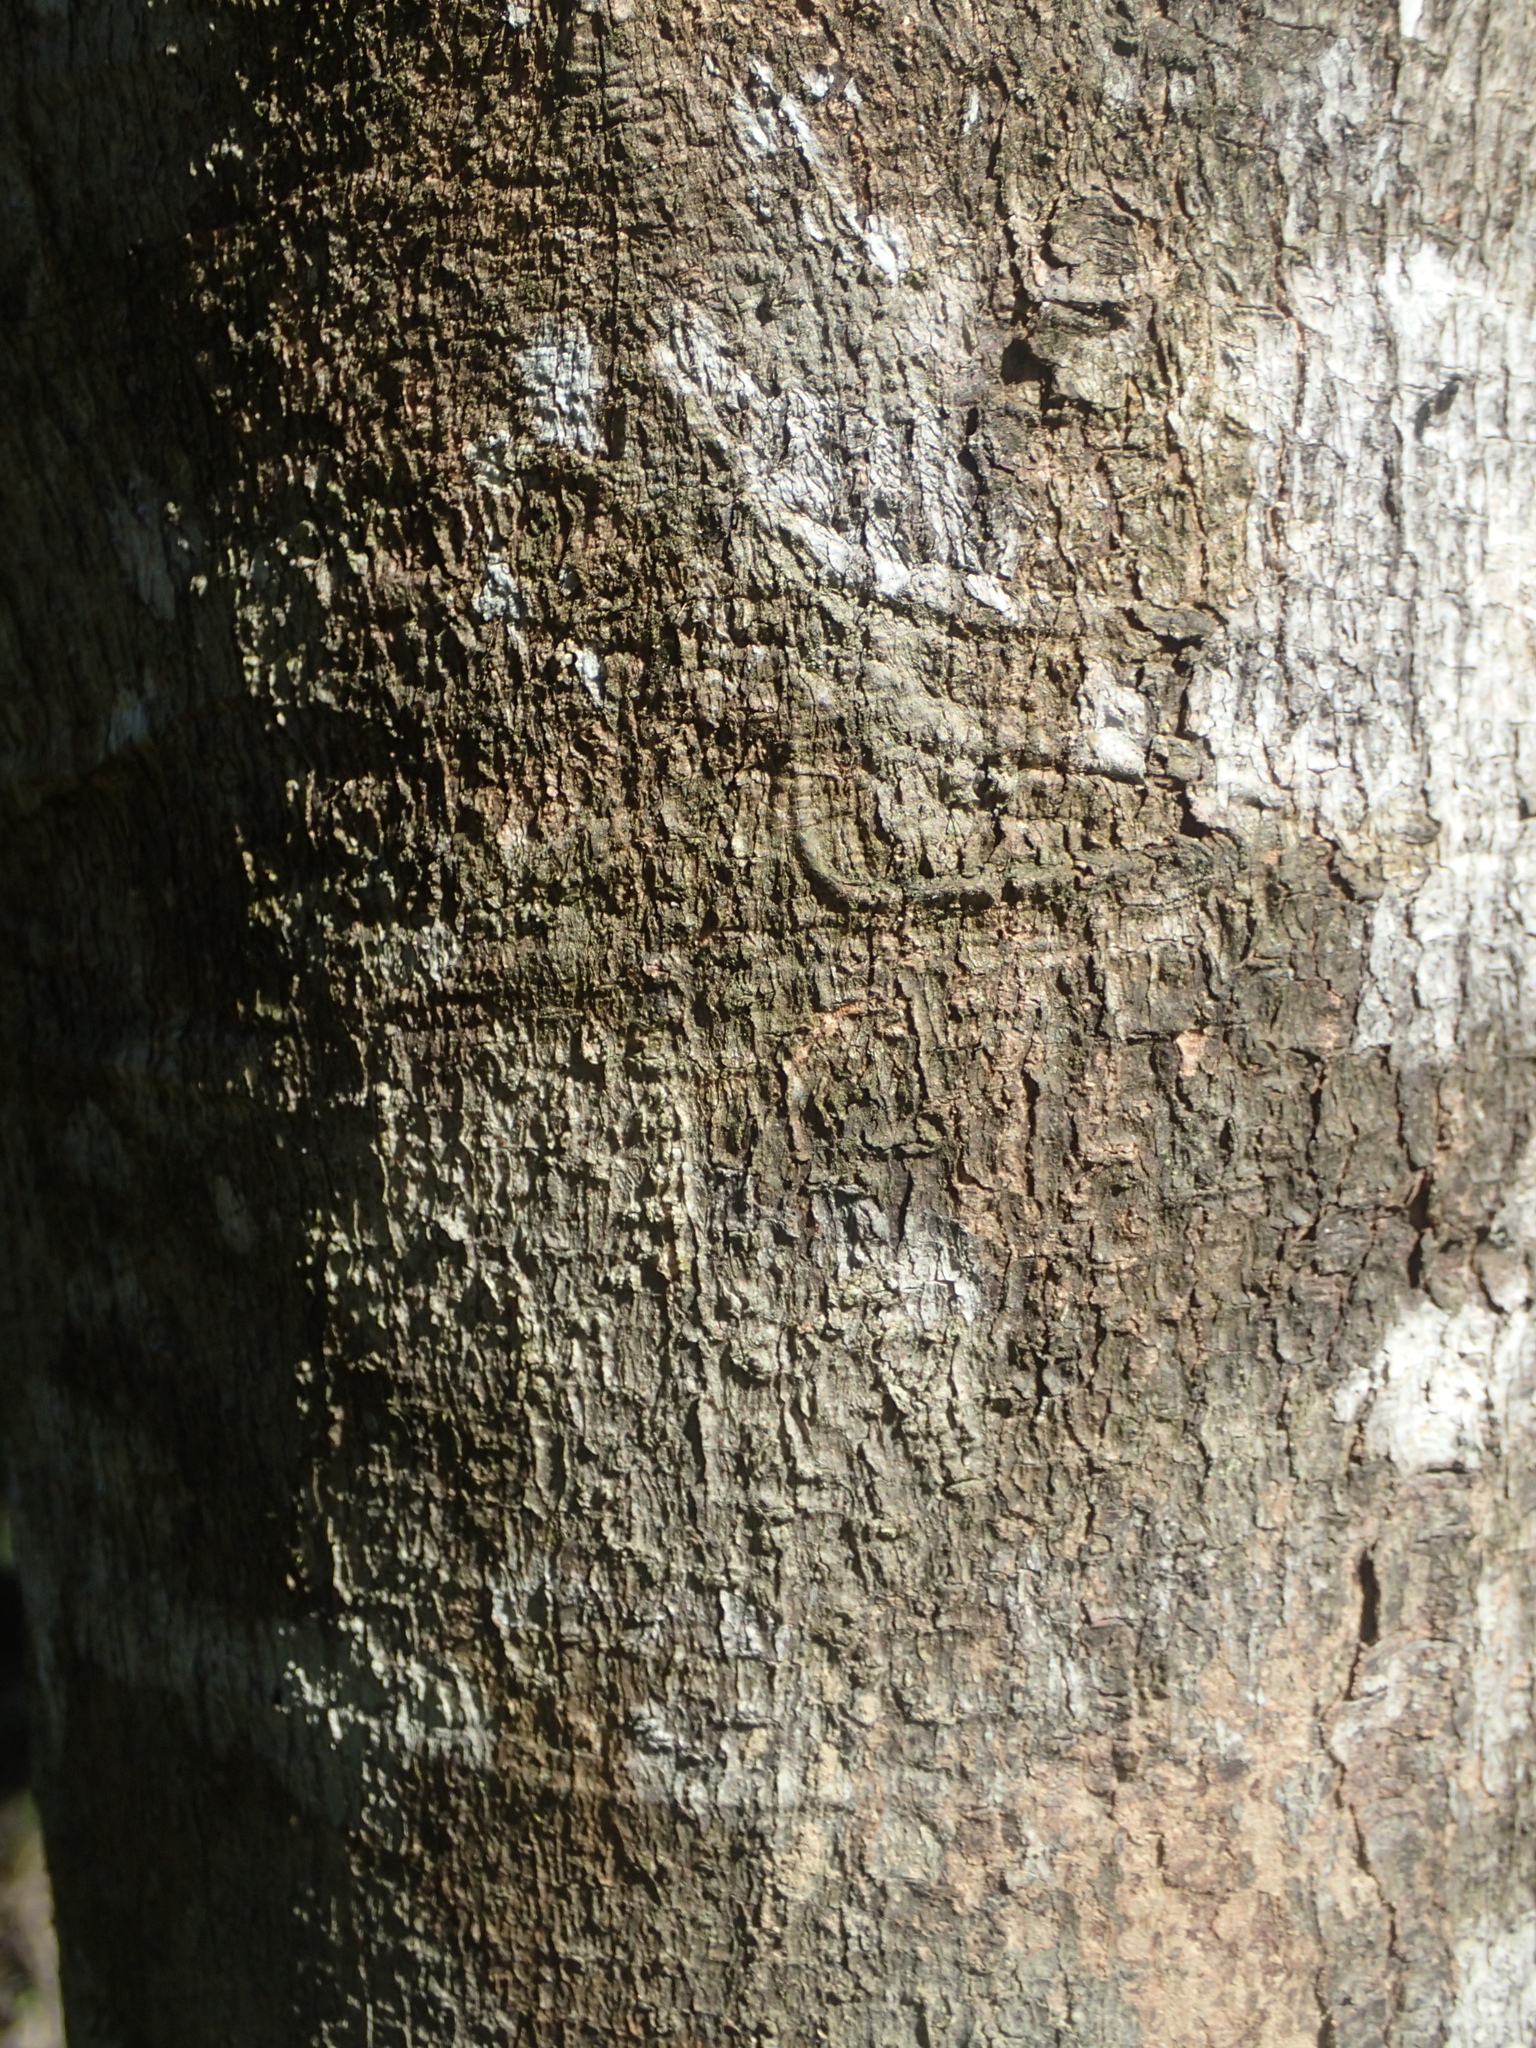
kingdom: Plantae
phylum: Tracheophyta
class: Magnoliopsida
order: Sapindales
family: Anacardiaceae
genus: Buchanania
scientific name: Buchanania arborescens
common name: Sparrow’s mango
